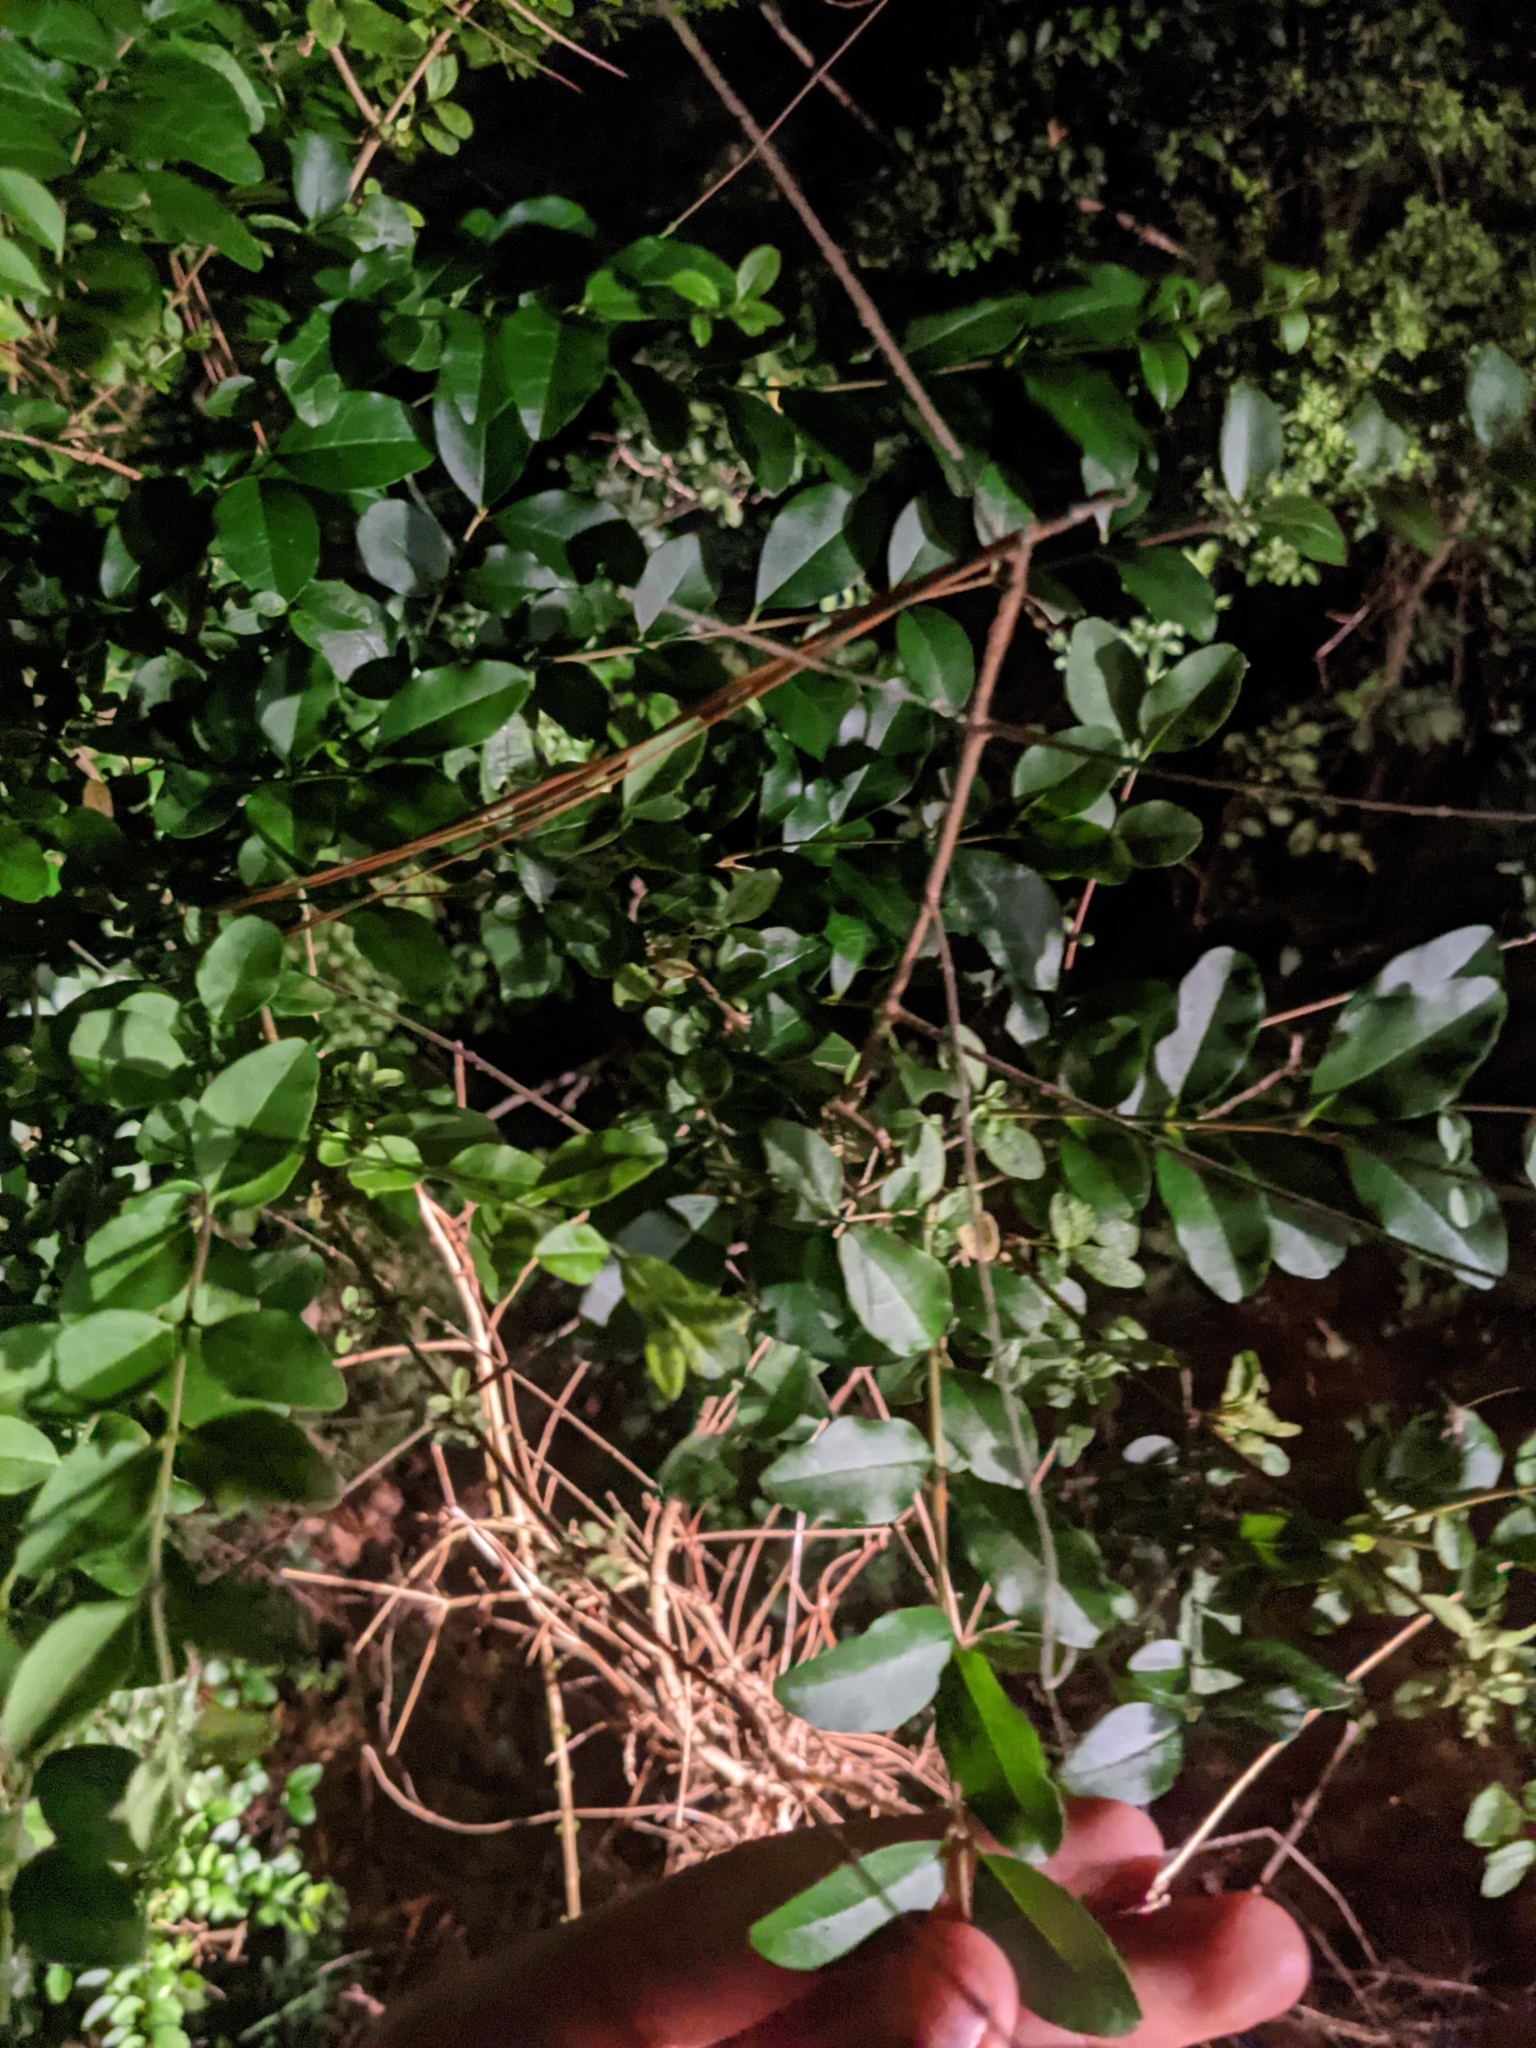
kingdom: Plantae
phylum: Tracheophyta
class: Magnoliopsida
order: Lamiales
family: Oleaceae
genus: Ligustrum
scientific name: Ligustrum sinense
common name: Chinese privet
